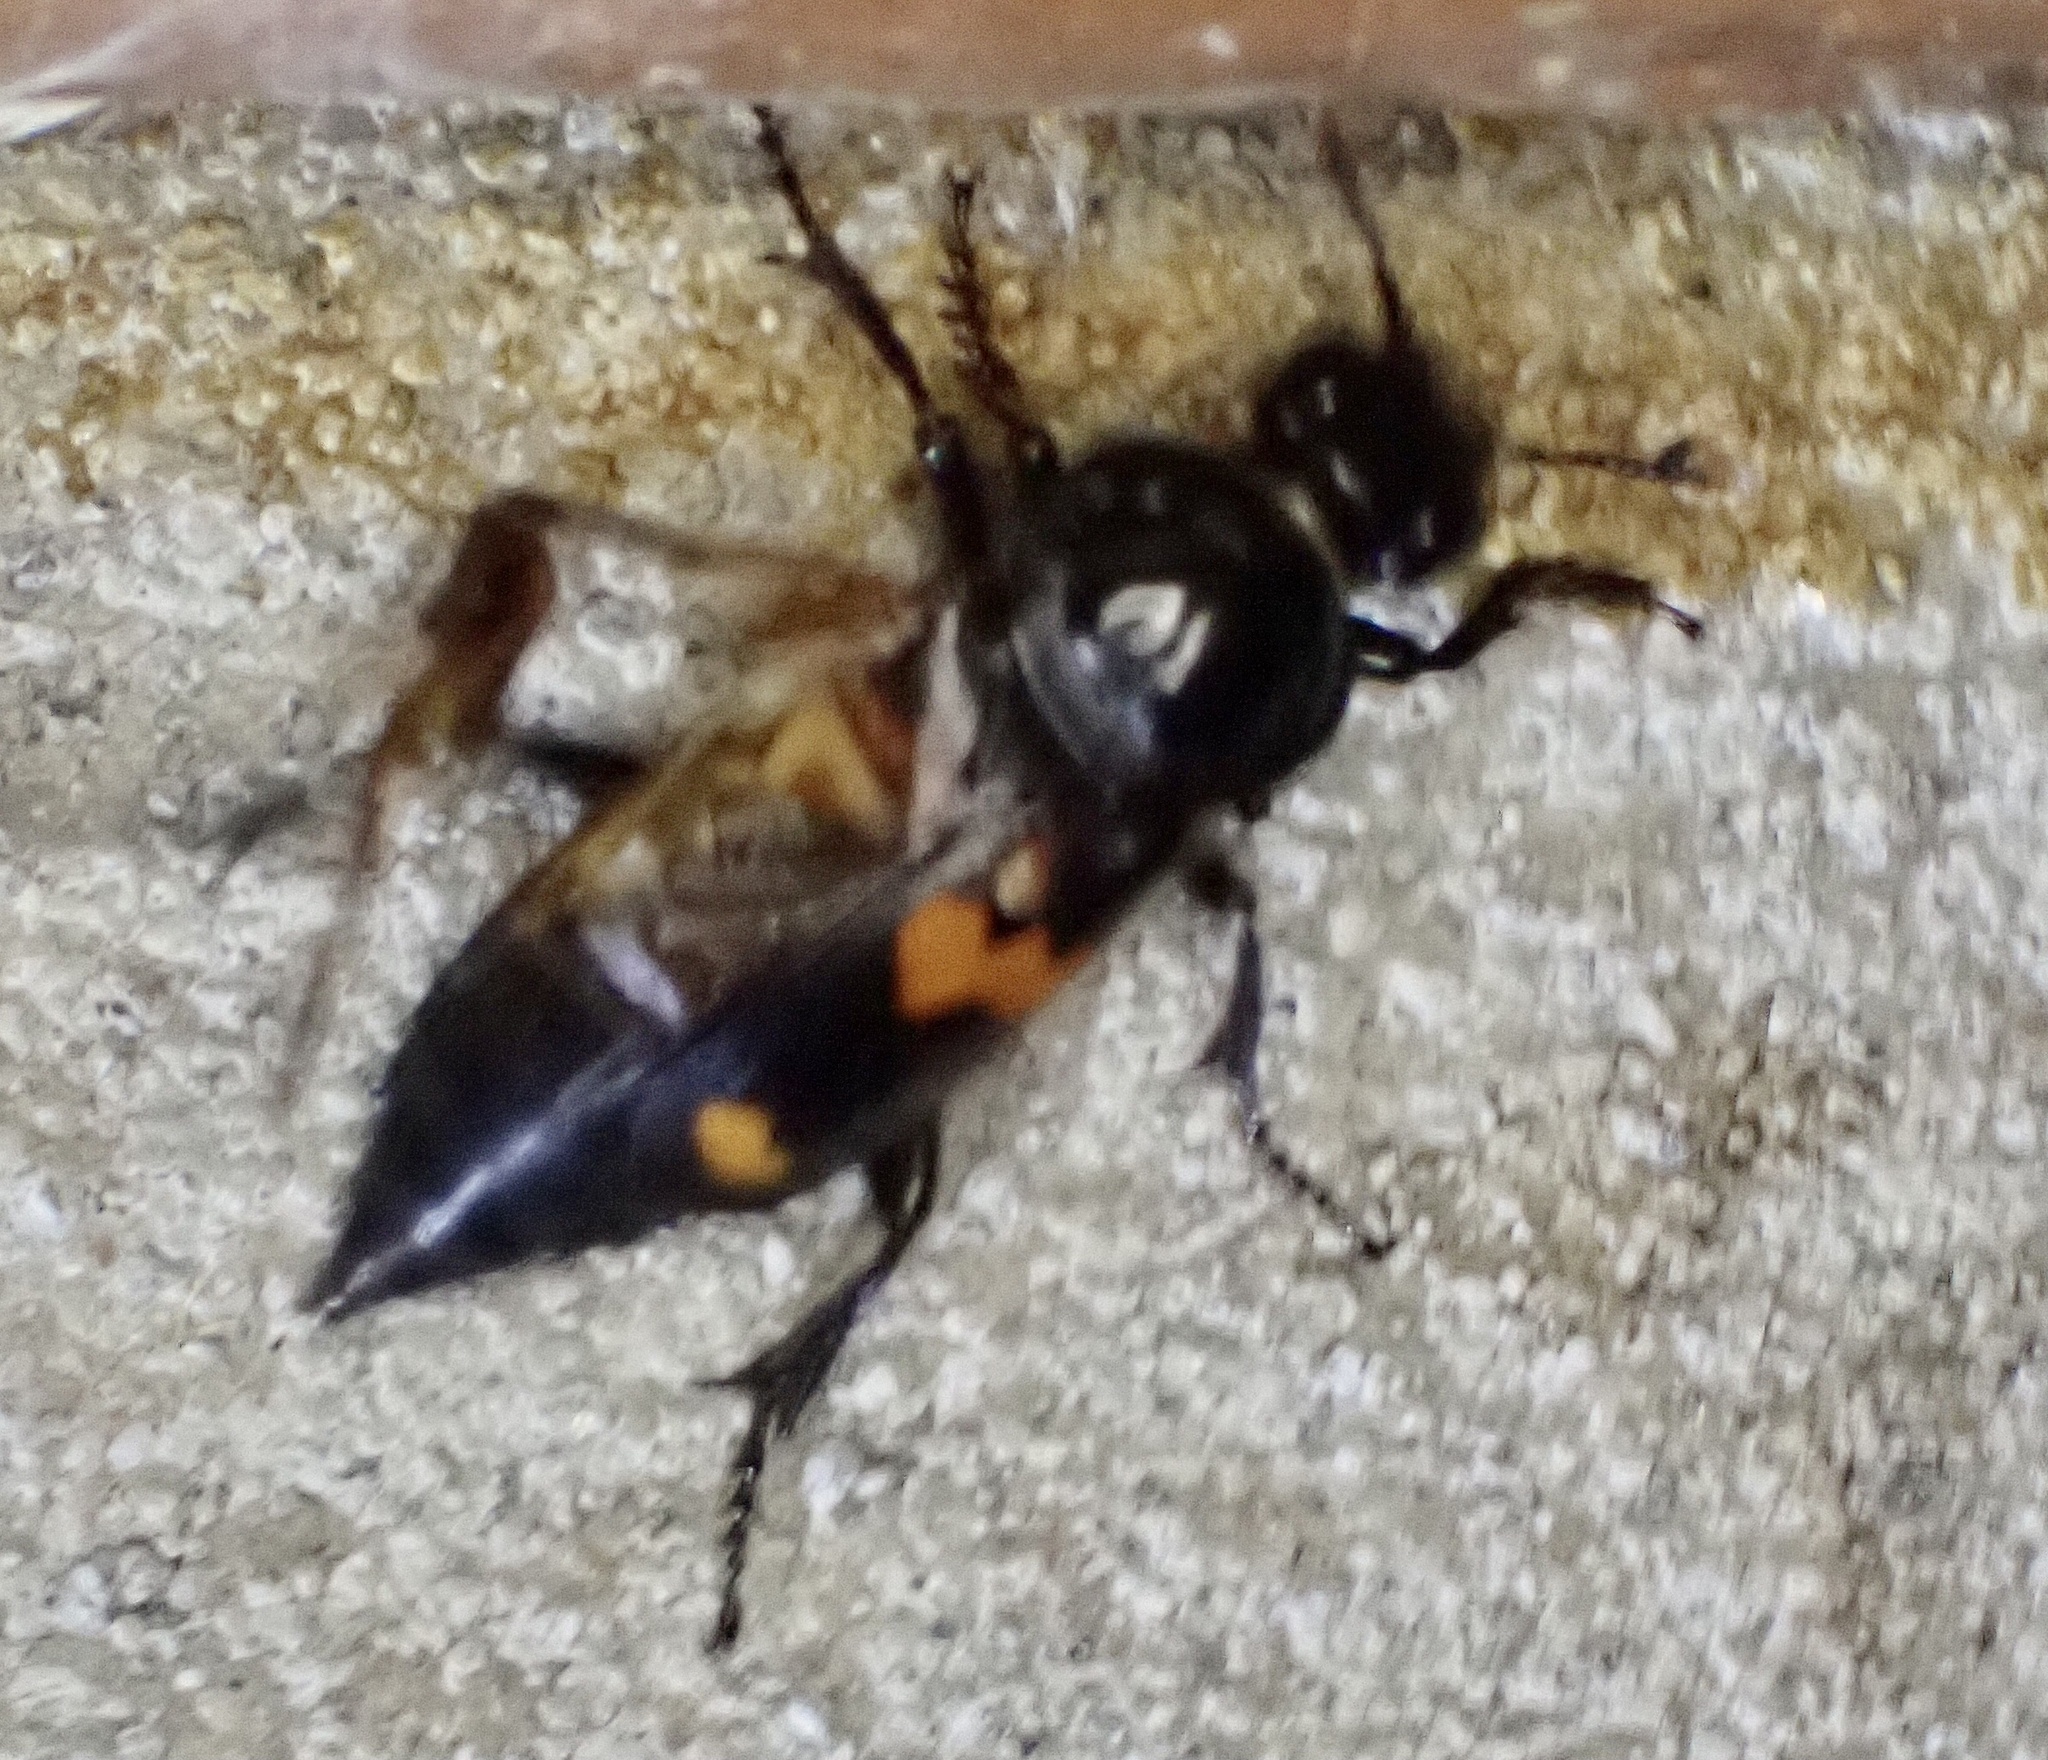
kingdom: Animalia
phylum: Arthropoda
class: Insecta
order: Coleoptera
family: Staphylinidae
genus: Nicrophorus
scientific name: Nicrophorus orbicollis
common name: Roundneck sexton beetle
